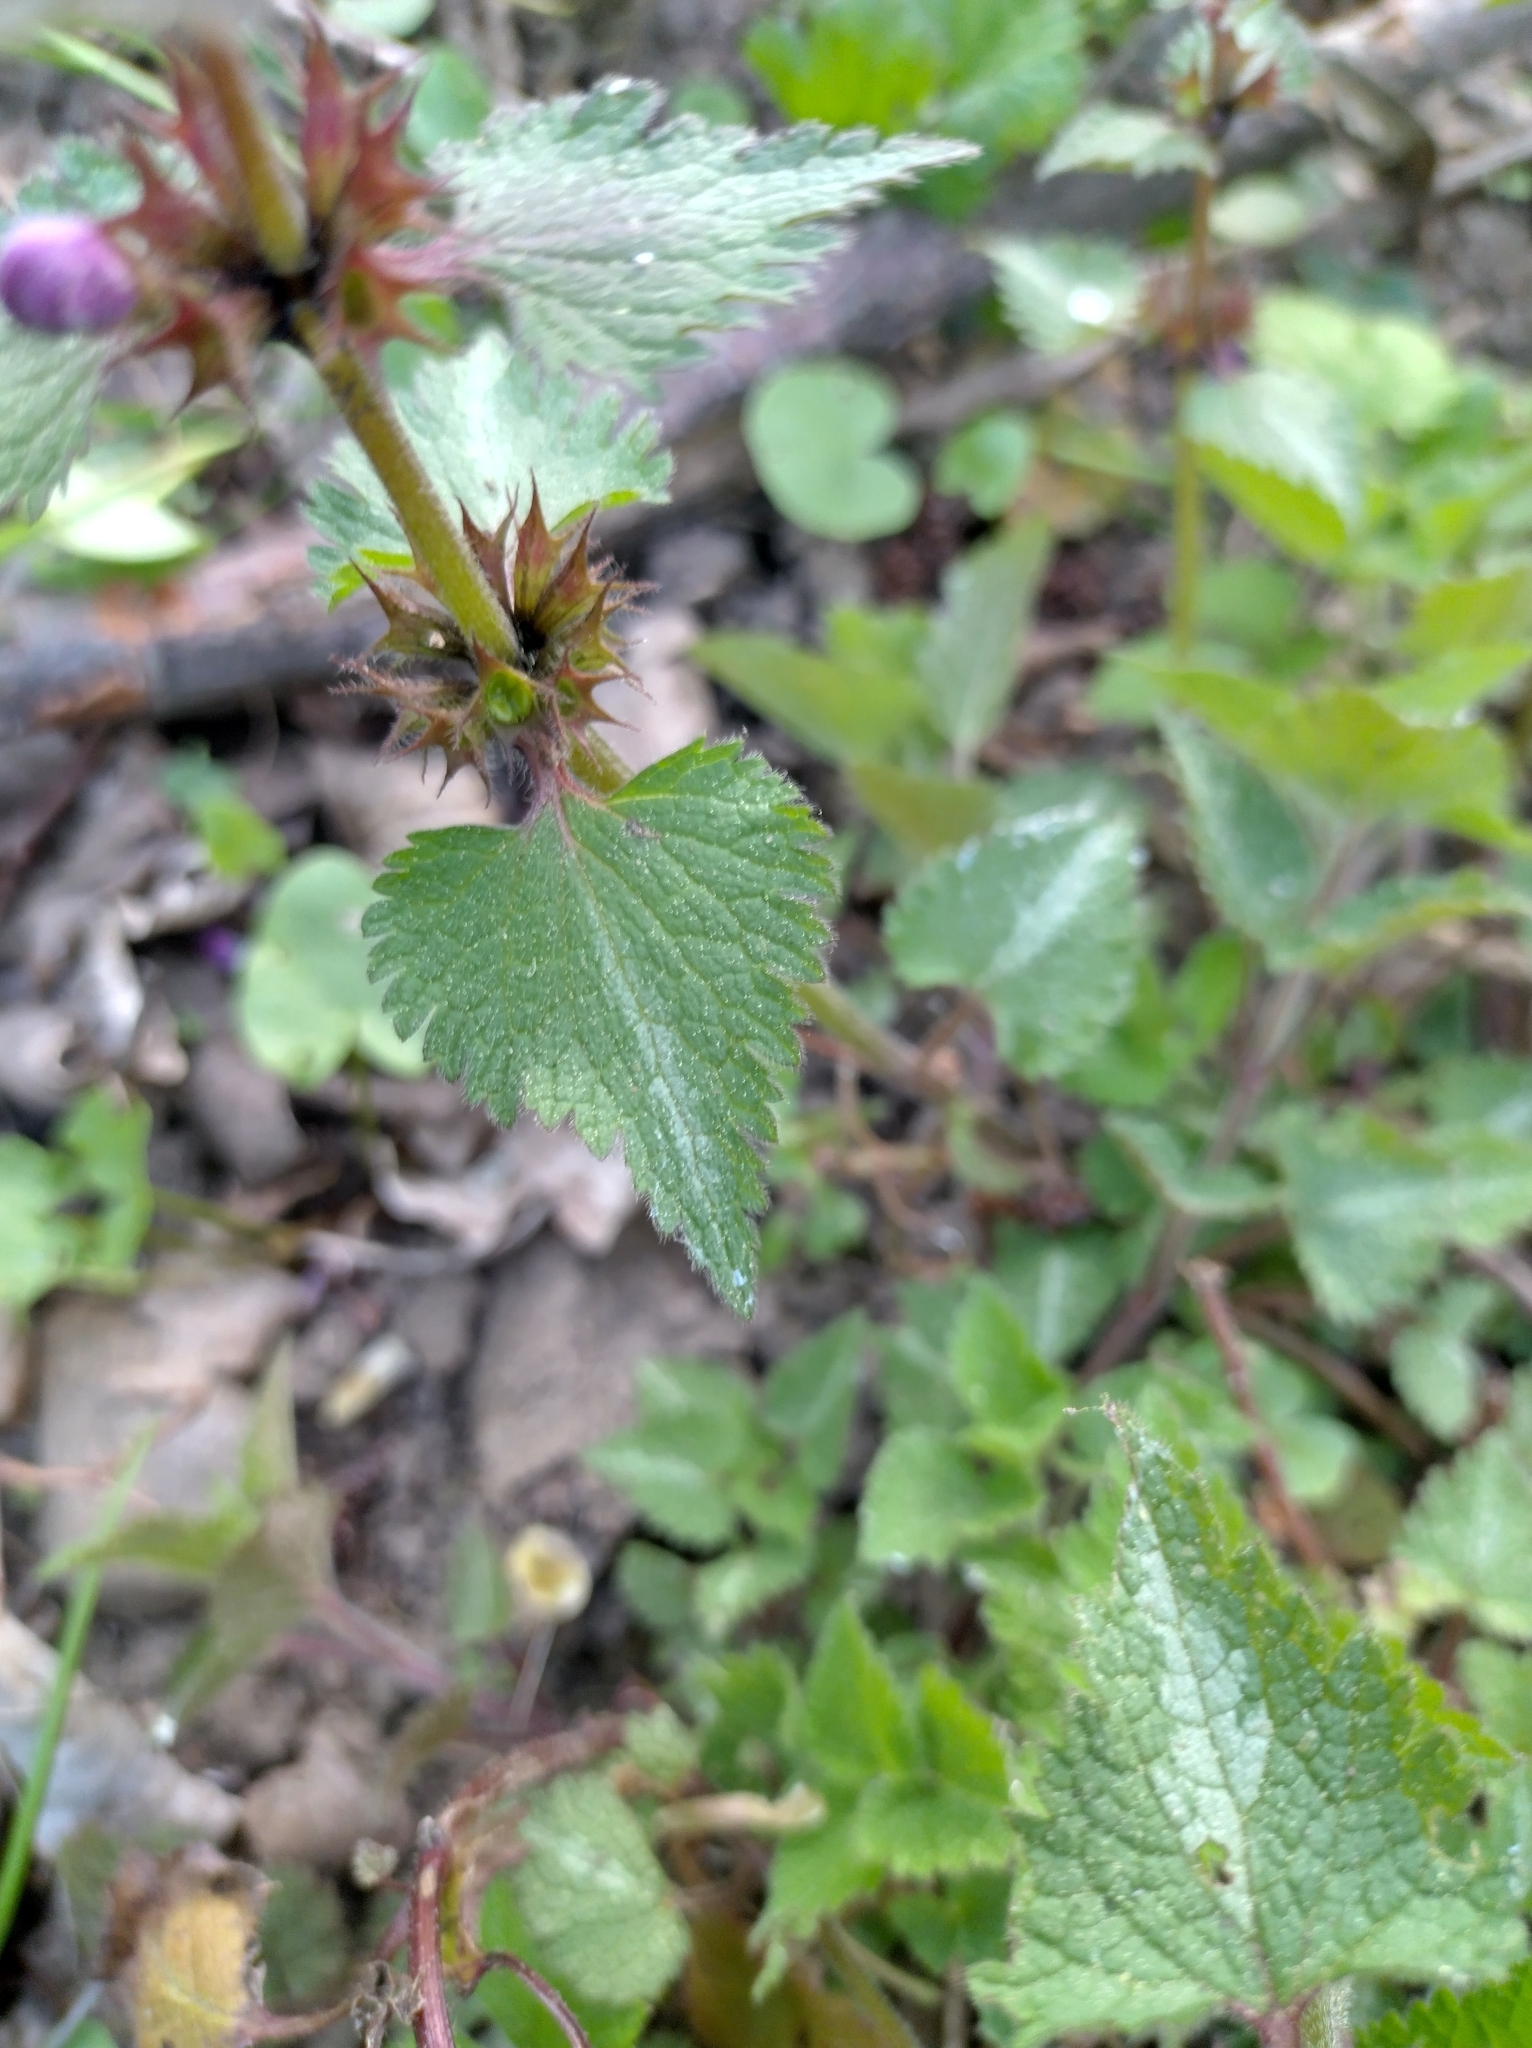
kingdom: Plantae
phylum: Tracheophyta
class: Magnoliopsida
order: Lamiales
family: Lamiaceae
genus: Lamium
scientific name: Lamium maculatum
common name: Spotted dead-nettle
